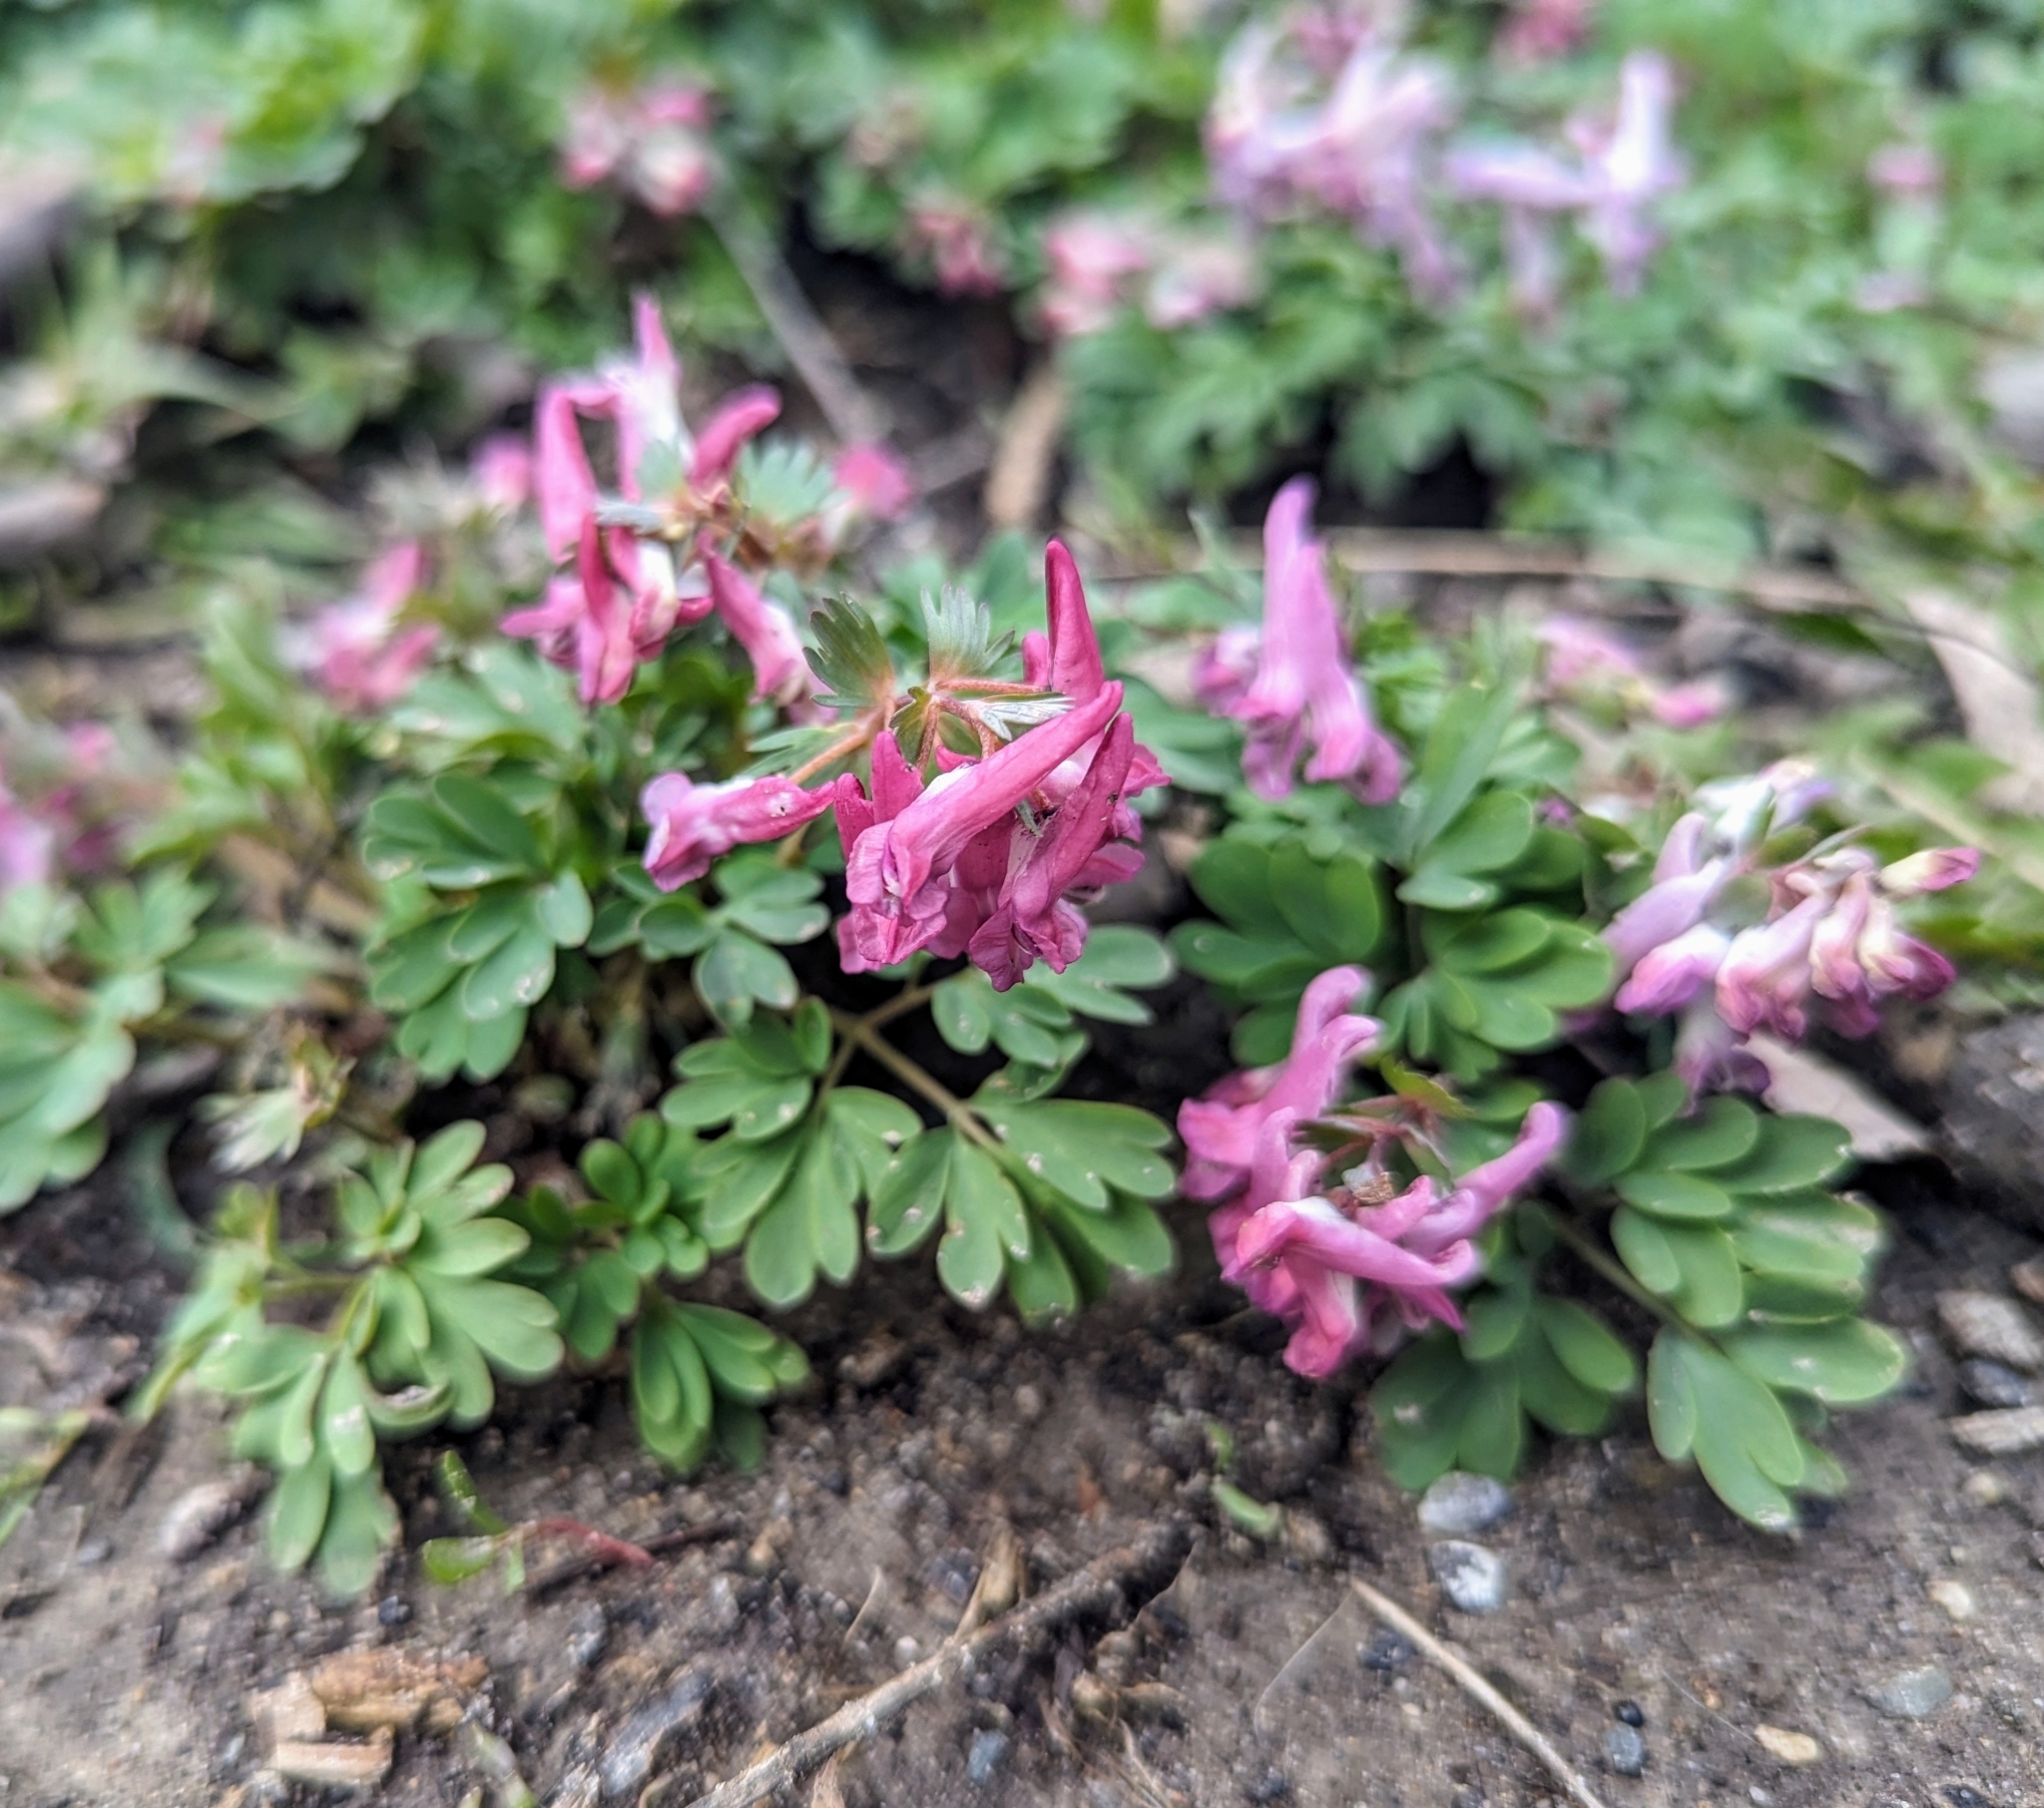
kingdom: Plantae
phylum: Tracheophyta
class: Magnoliopsida
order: Ranunculales
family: Papaveraceae
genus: Corydalis
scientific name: Corydalis solida
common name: Bird-in-a-bush
